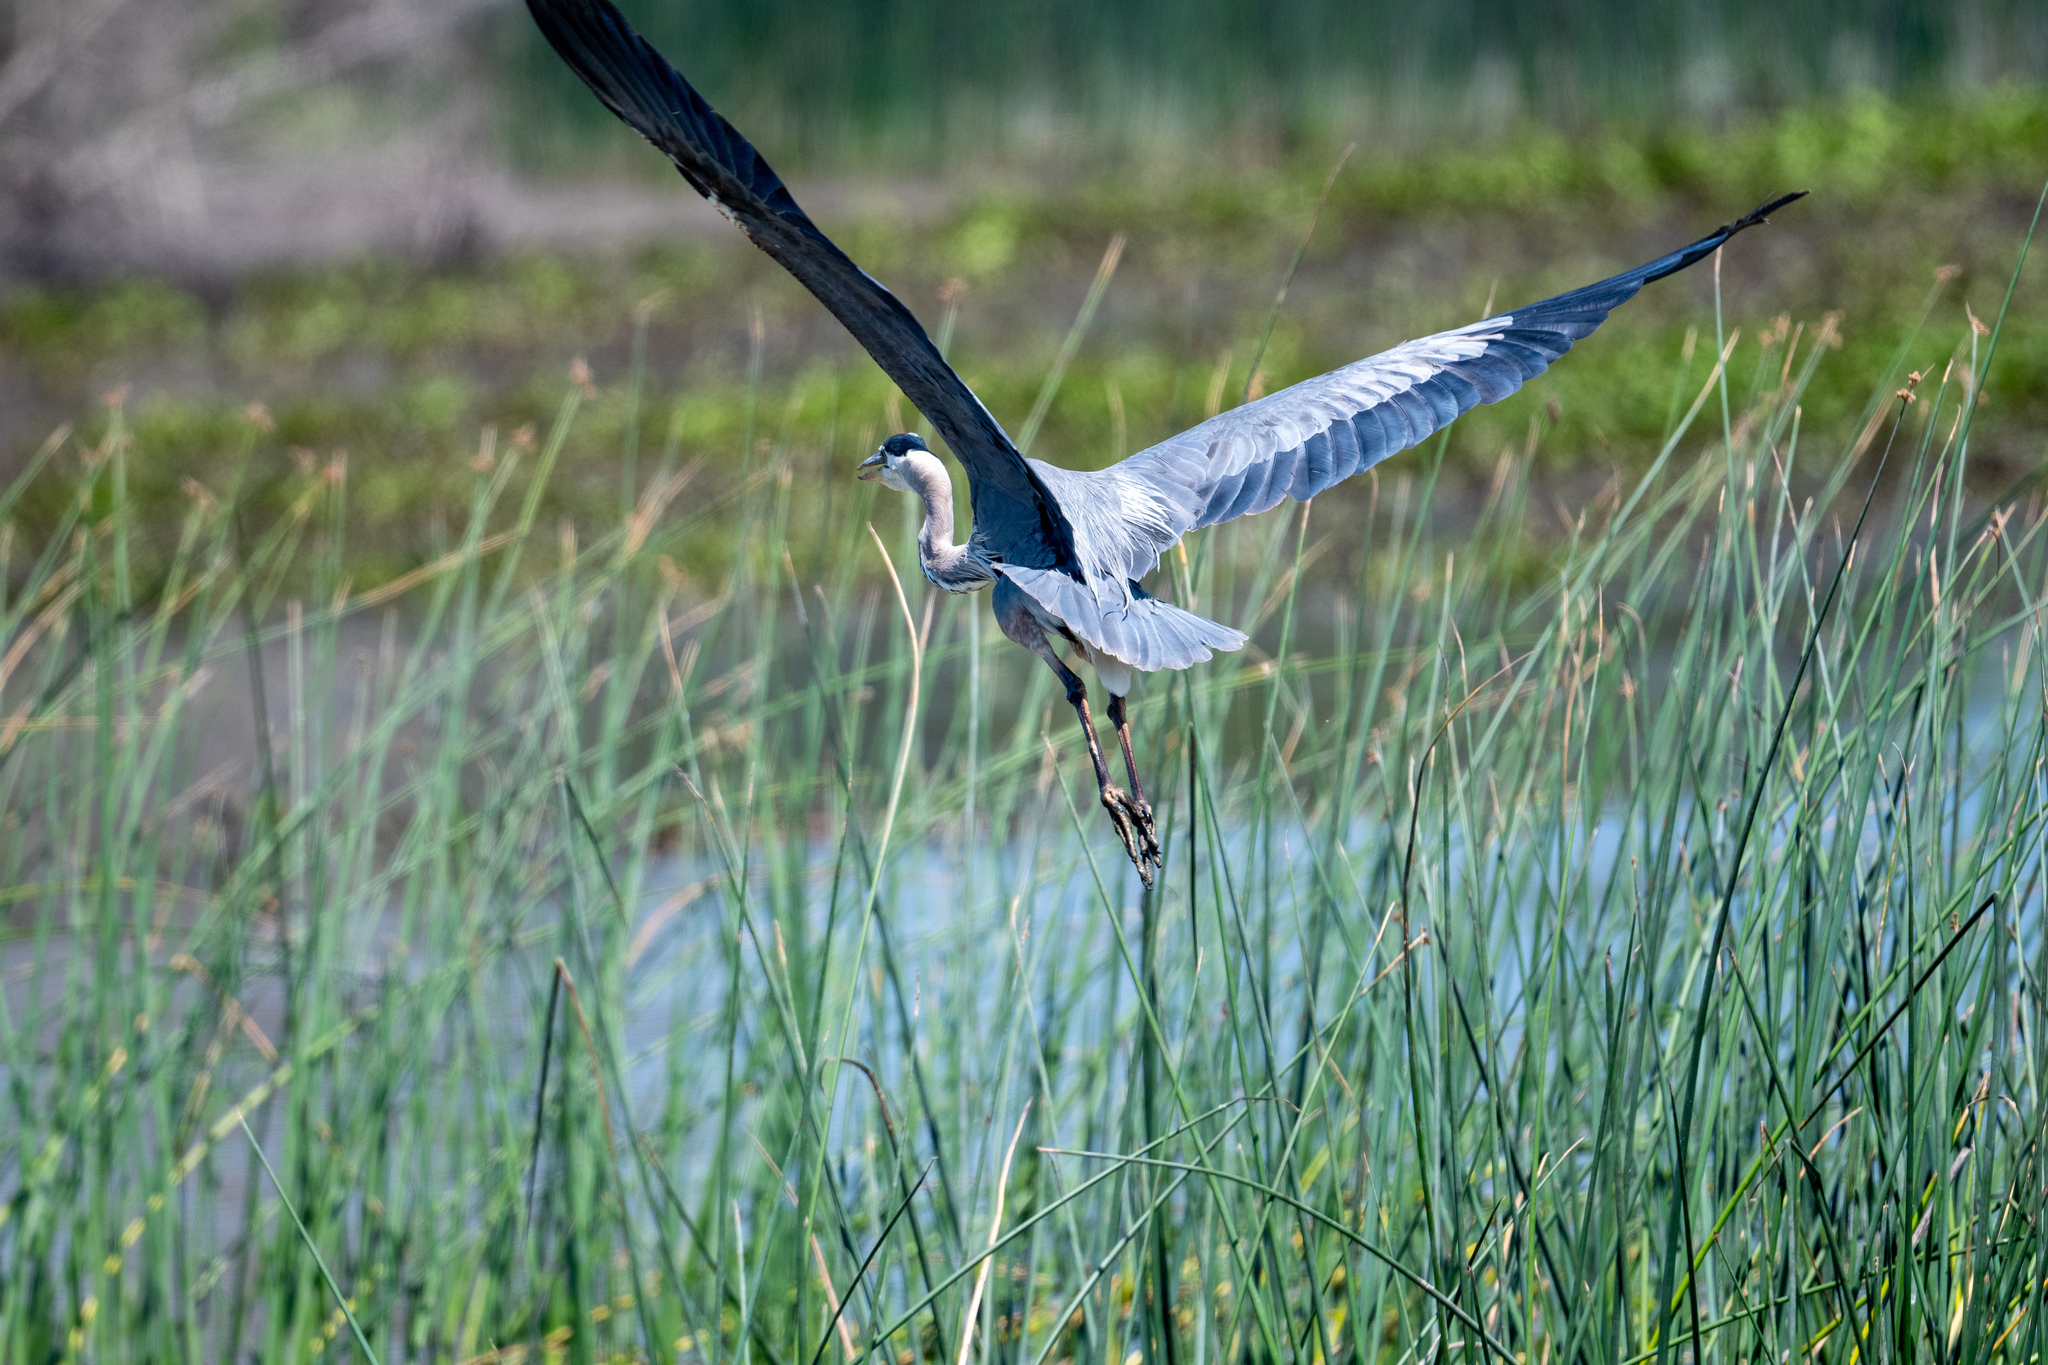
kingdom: Animalia
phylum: Chordata
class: Aves
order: Pelecaniformes
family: Ardeidae
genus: Ardea
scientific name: Ardea herodias
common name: Great blue heron
